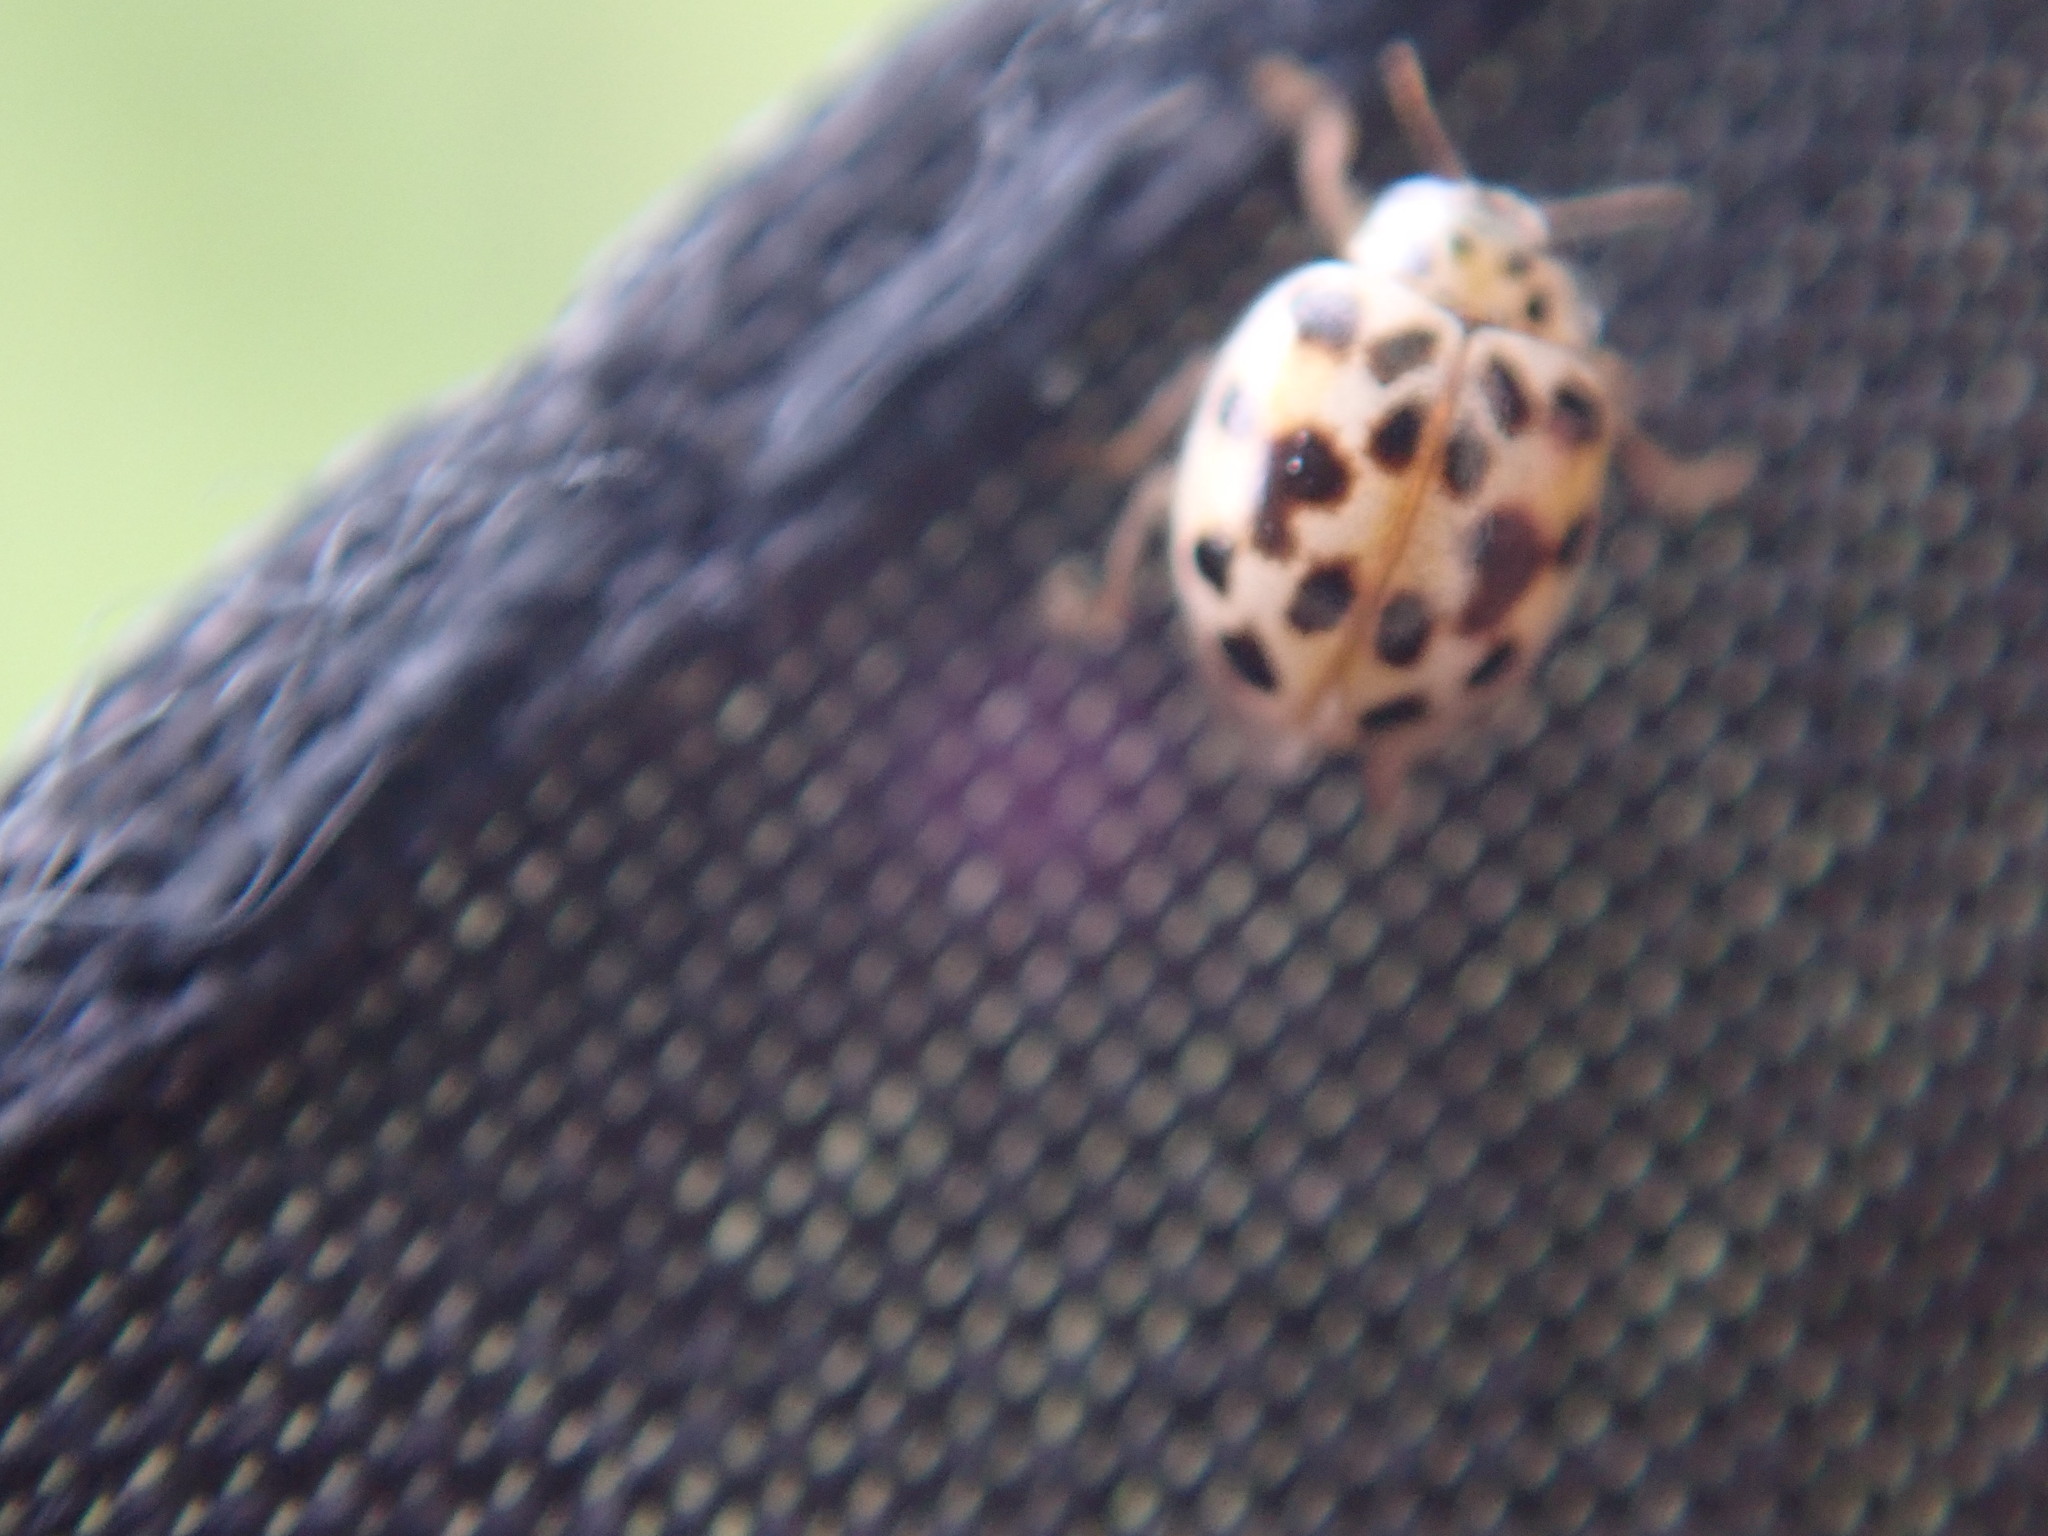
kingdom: Animalia
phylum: Arthropoda
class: Insecta
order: Coleoptera
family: Coccinellidae
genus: Psyllobora
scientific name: Psyllobora vigintimaculata
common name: Ladybird beetle
